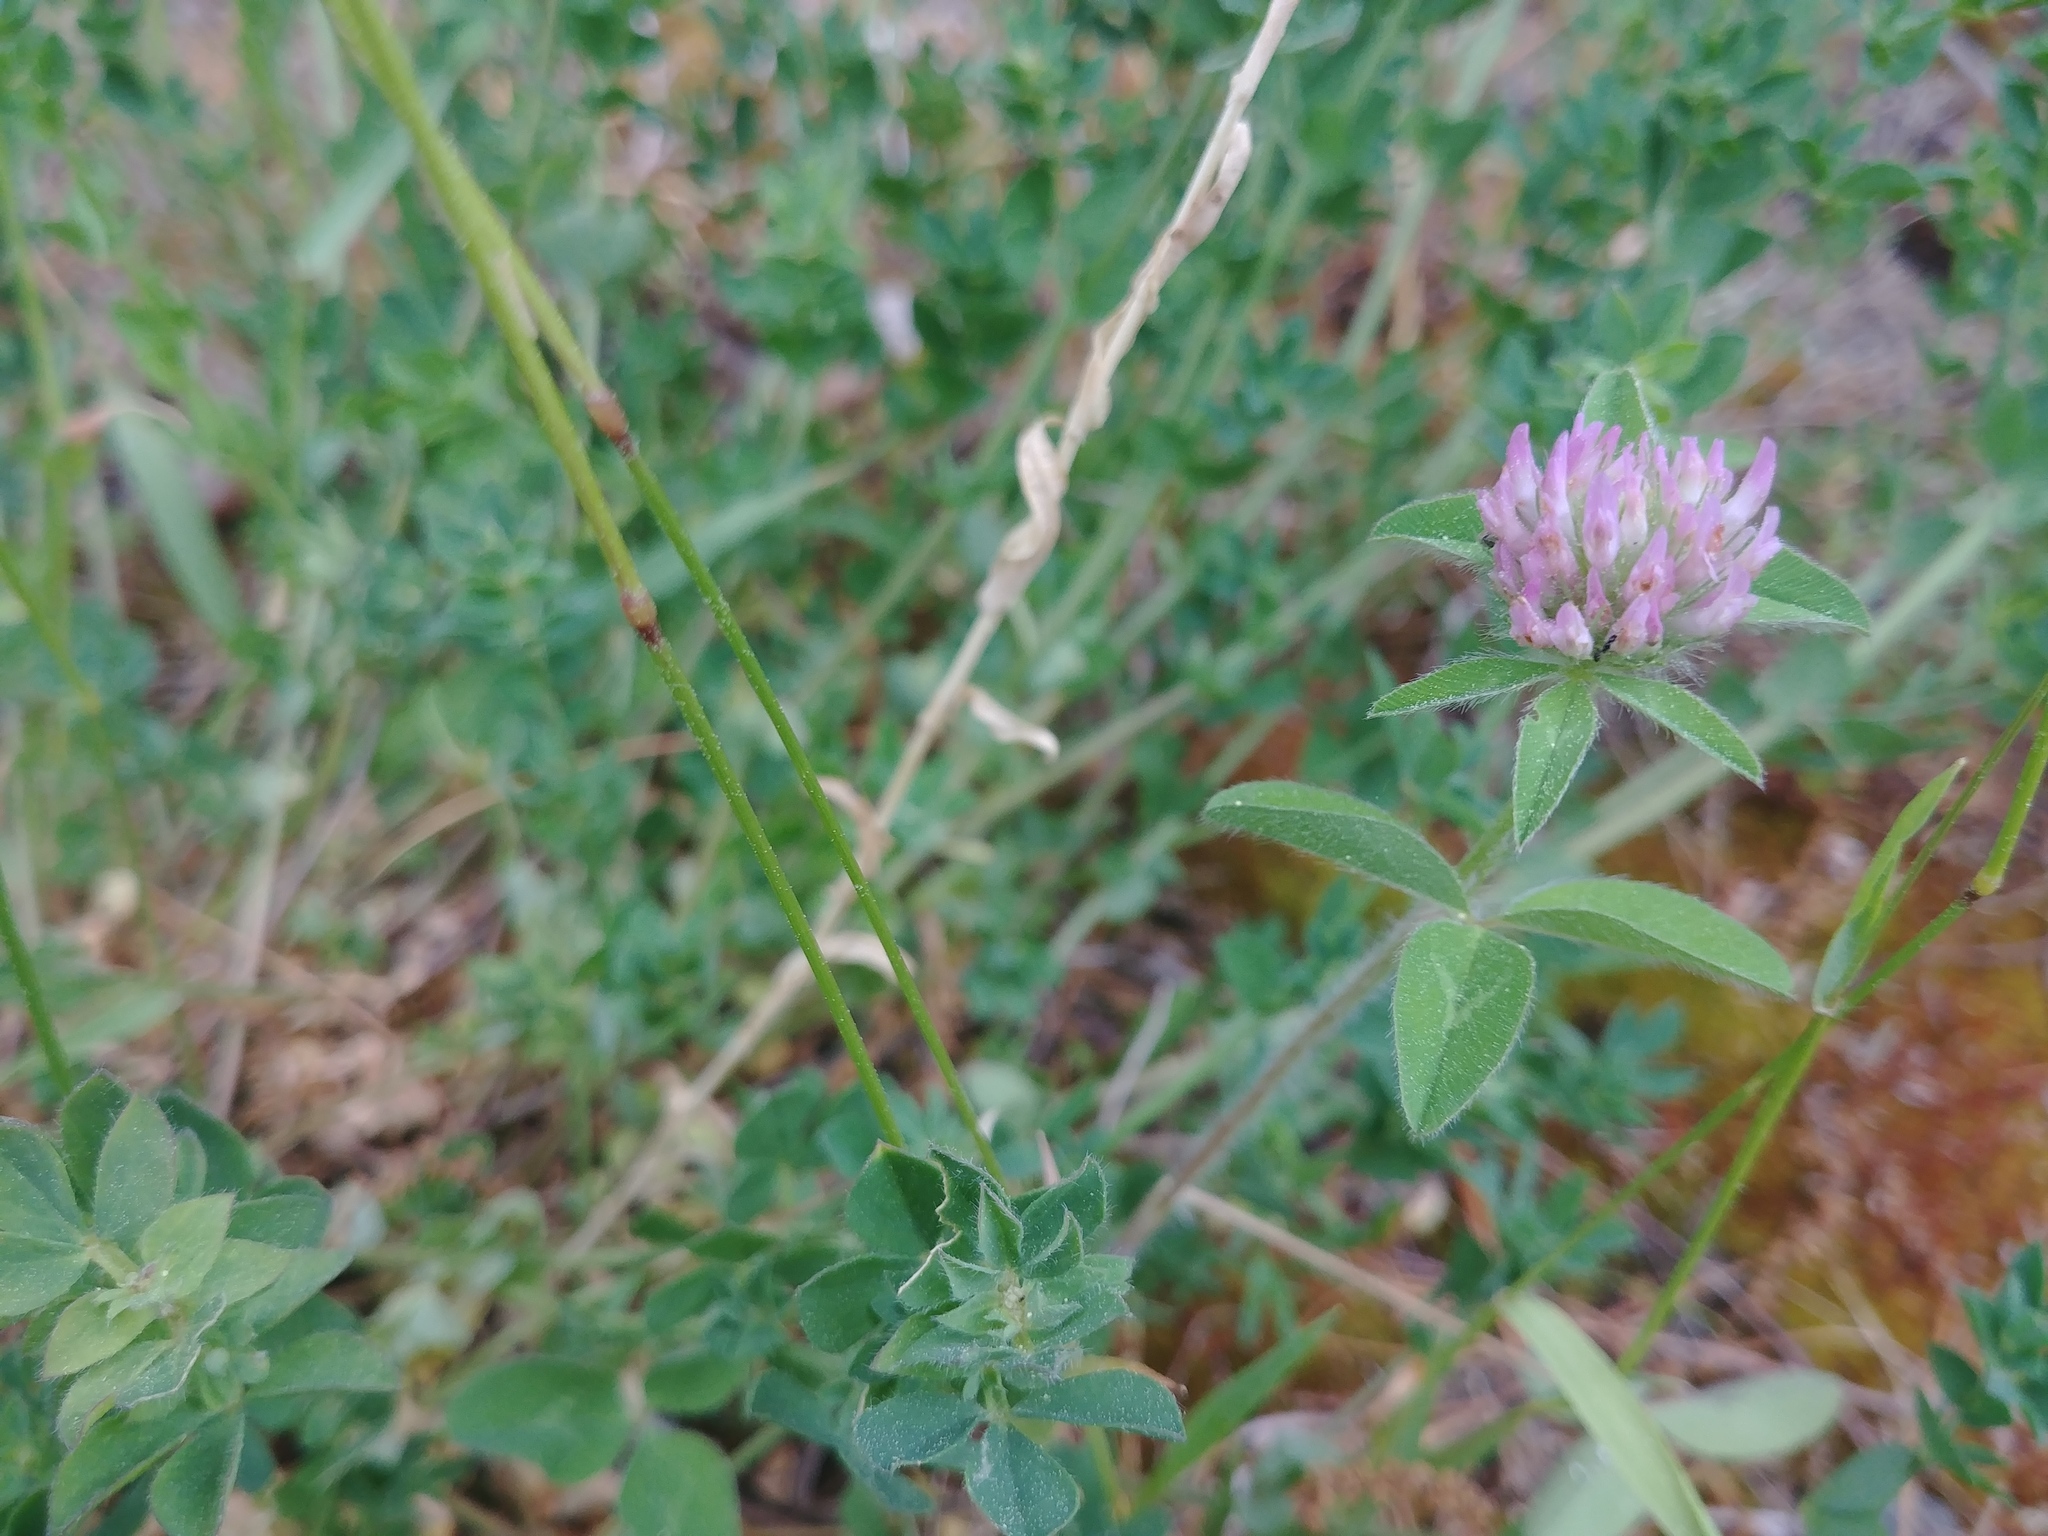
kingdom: Plantae
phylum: Tracheophyta
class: Magnoliopsida
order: Fabales
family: Fabaceae
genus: Trifolium
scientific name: Trifolium pratense
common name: Red clover
